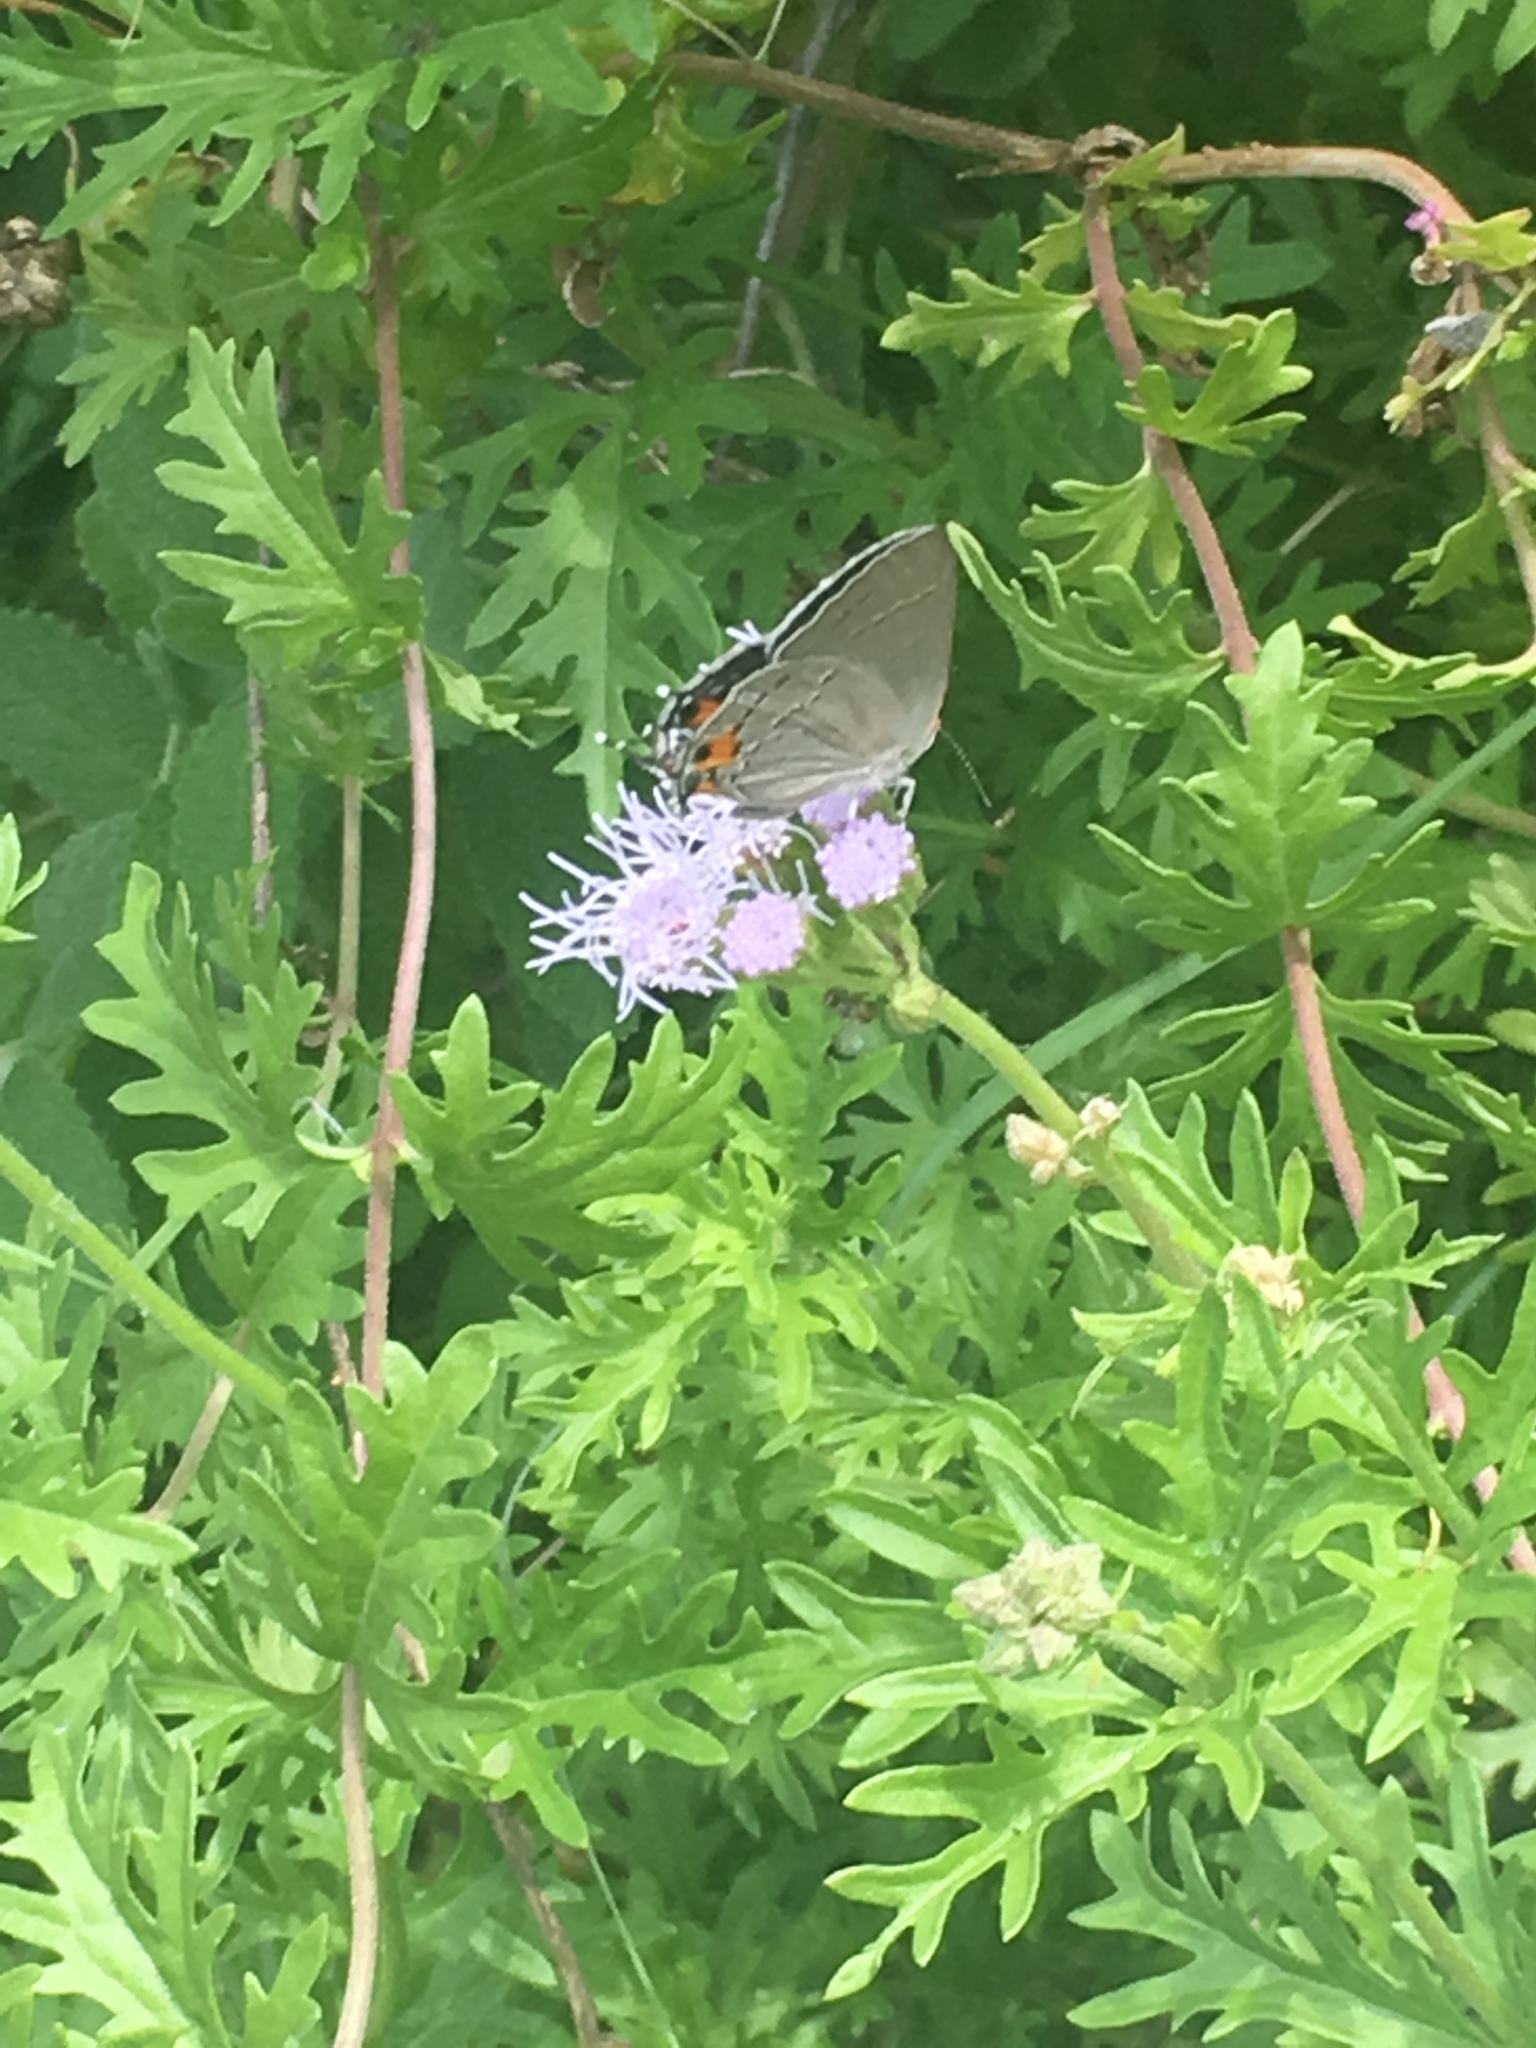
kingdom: Animalia
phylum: Arthropoda
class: Insecta
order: Lepidoptera
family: Lycaenidae
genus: Strymon
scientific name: Strymon melinus
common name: Gray hairstreak
